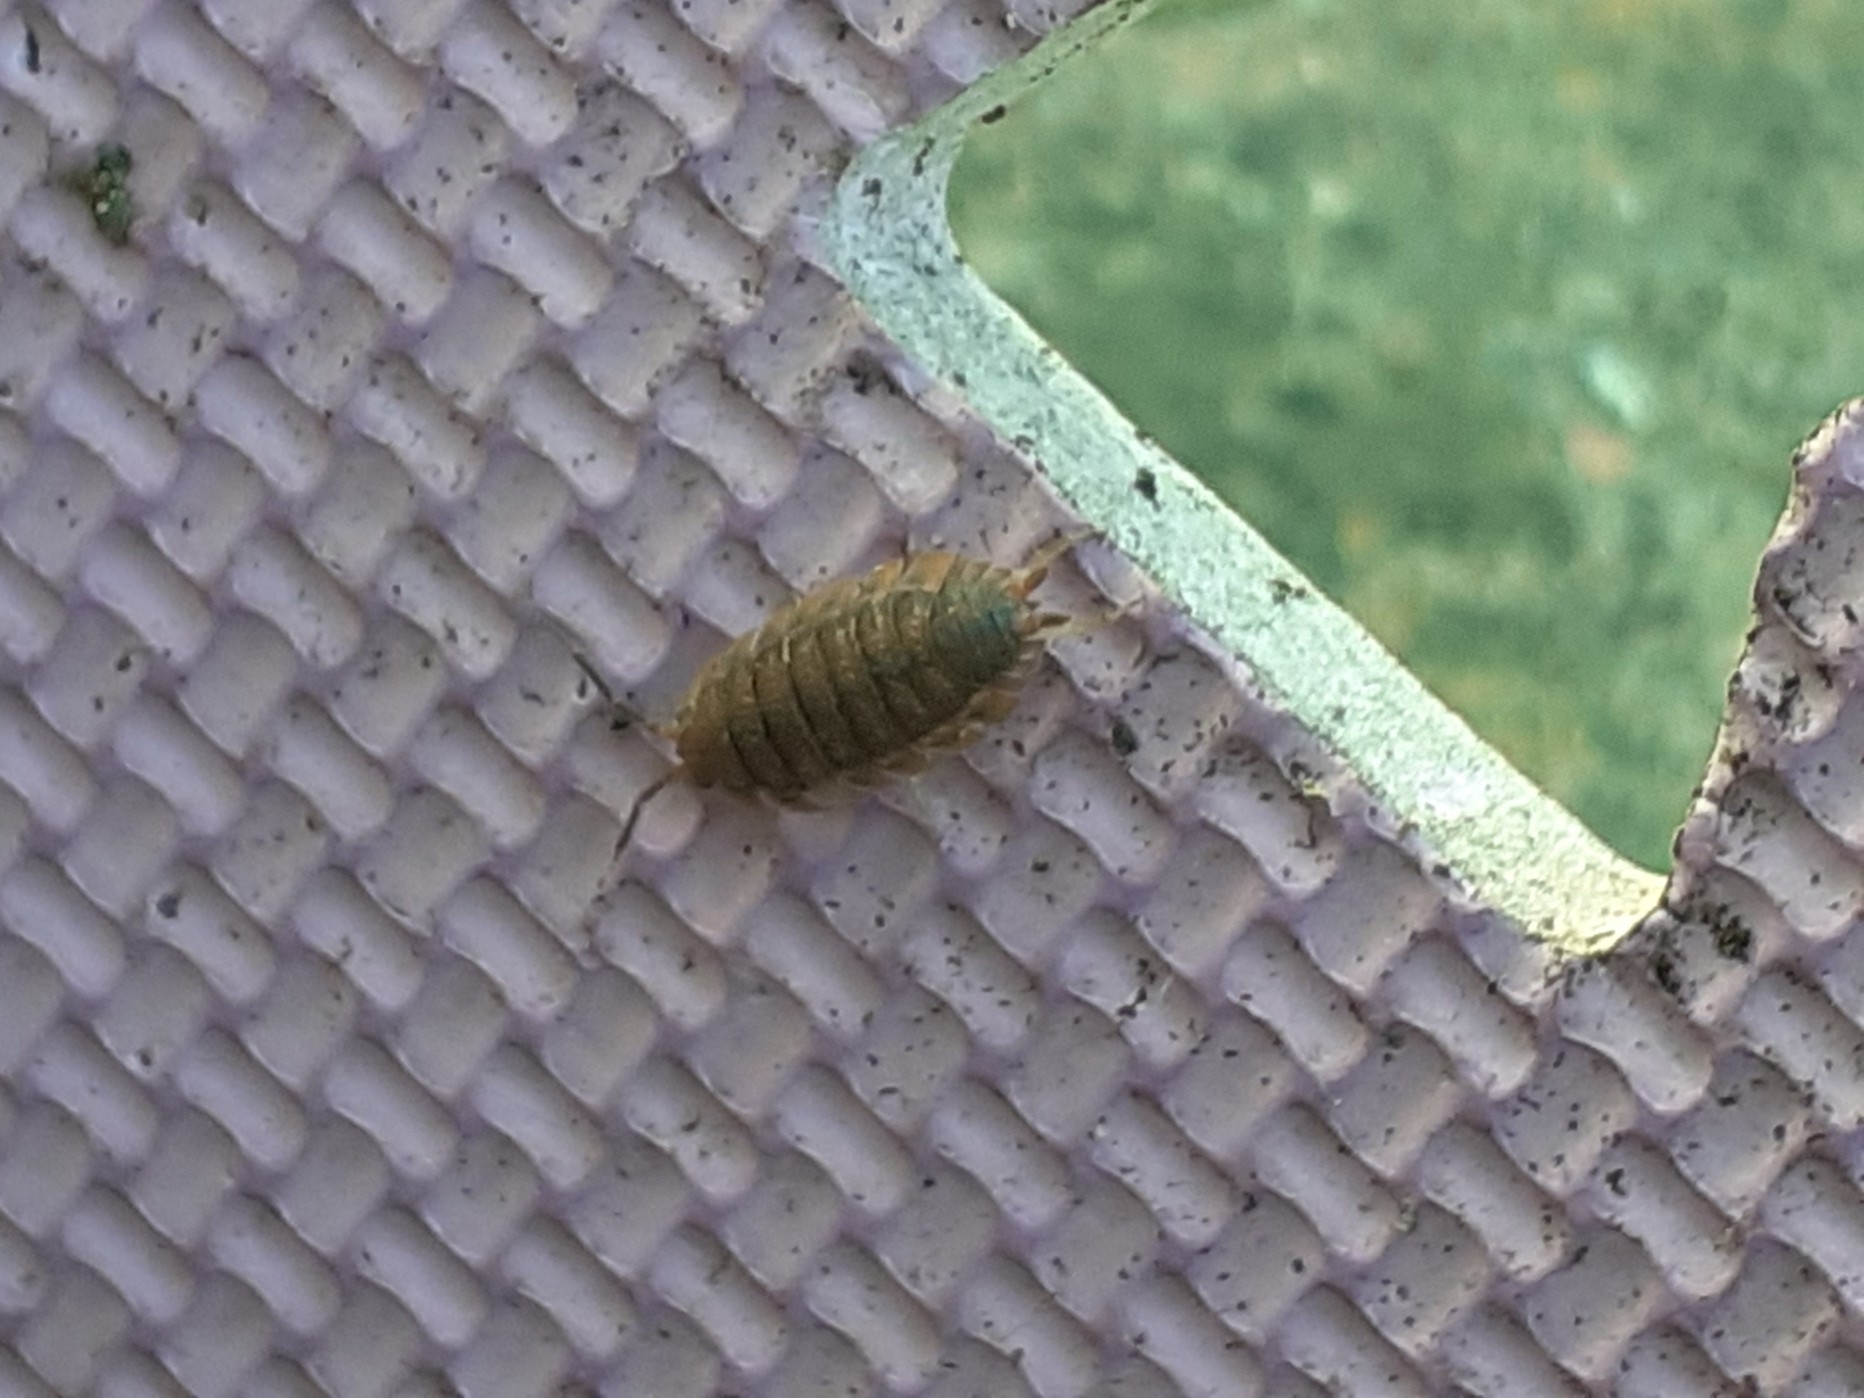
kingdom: Animalia
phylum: Arthropoda
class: Malacostraca
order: Isopoda
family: Porcellionidae
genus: Porcellio
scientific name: Porcellio scaber
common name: Common rough woodlouse
